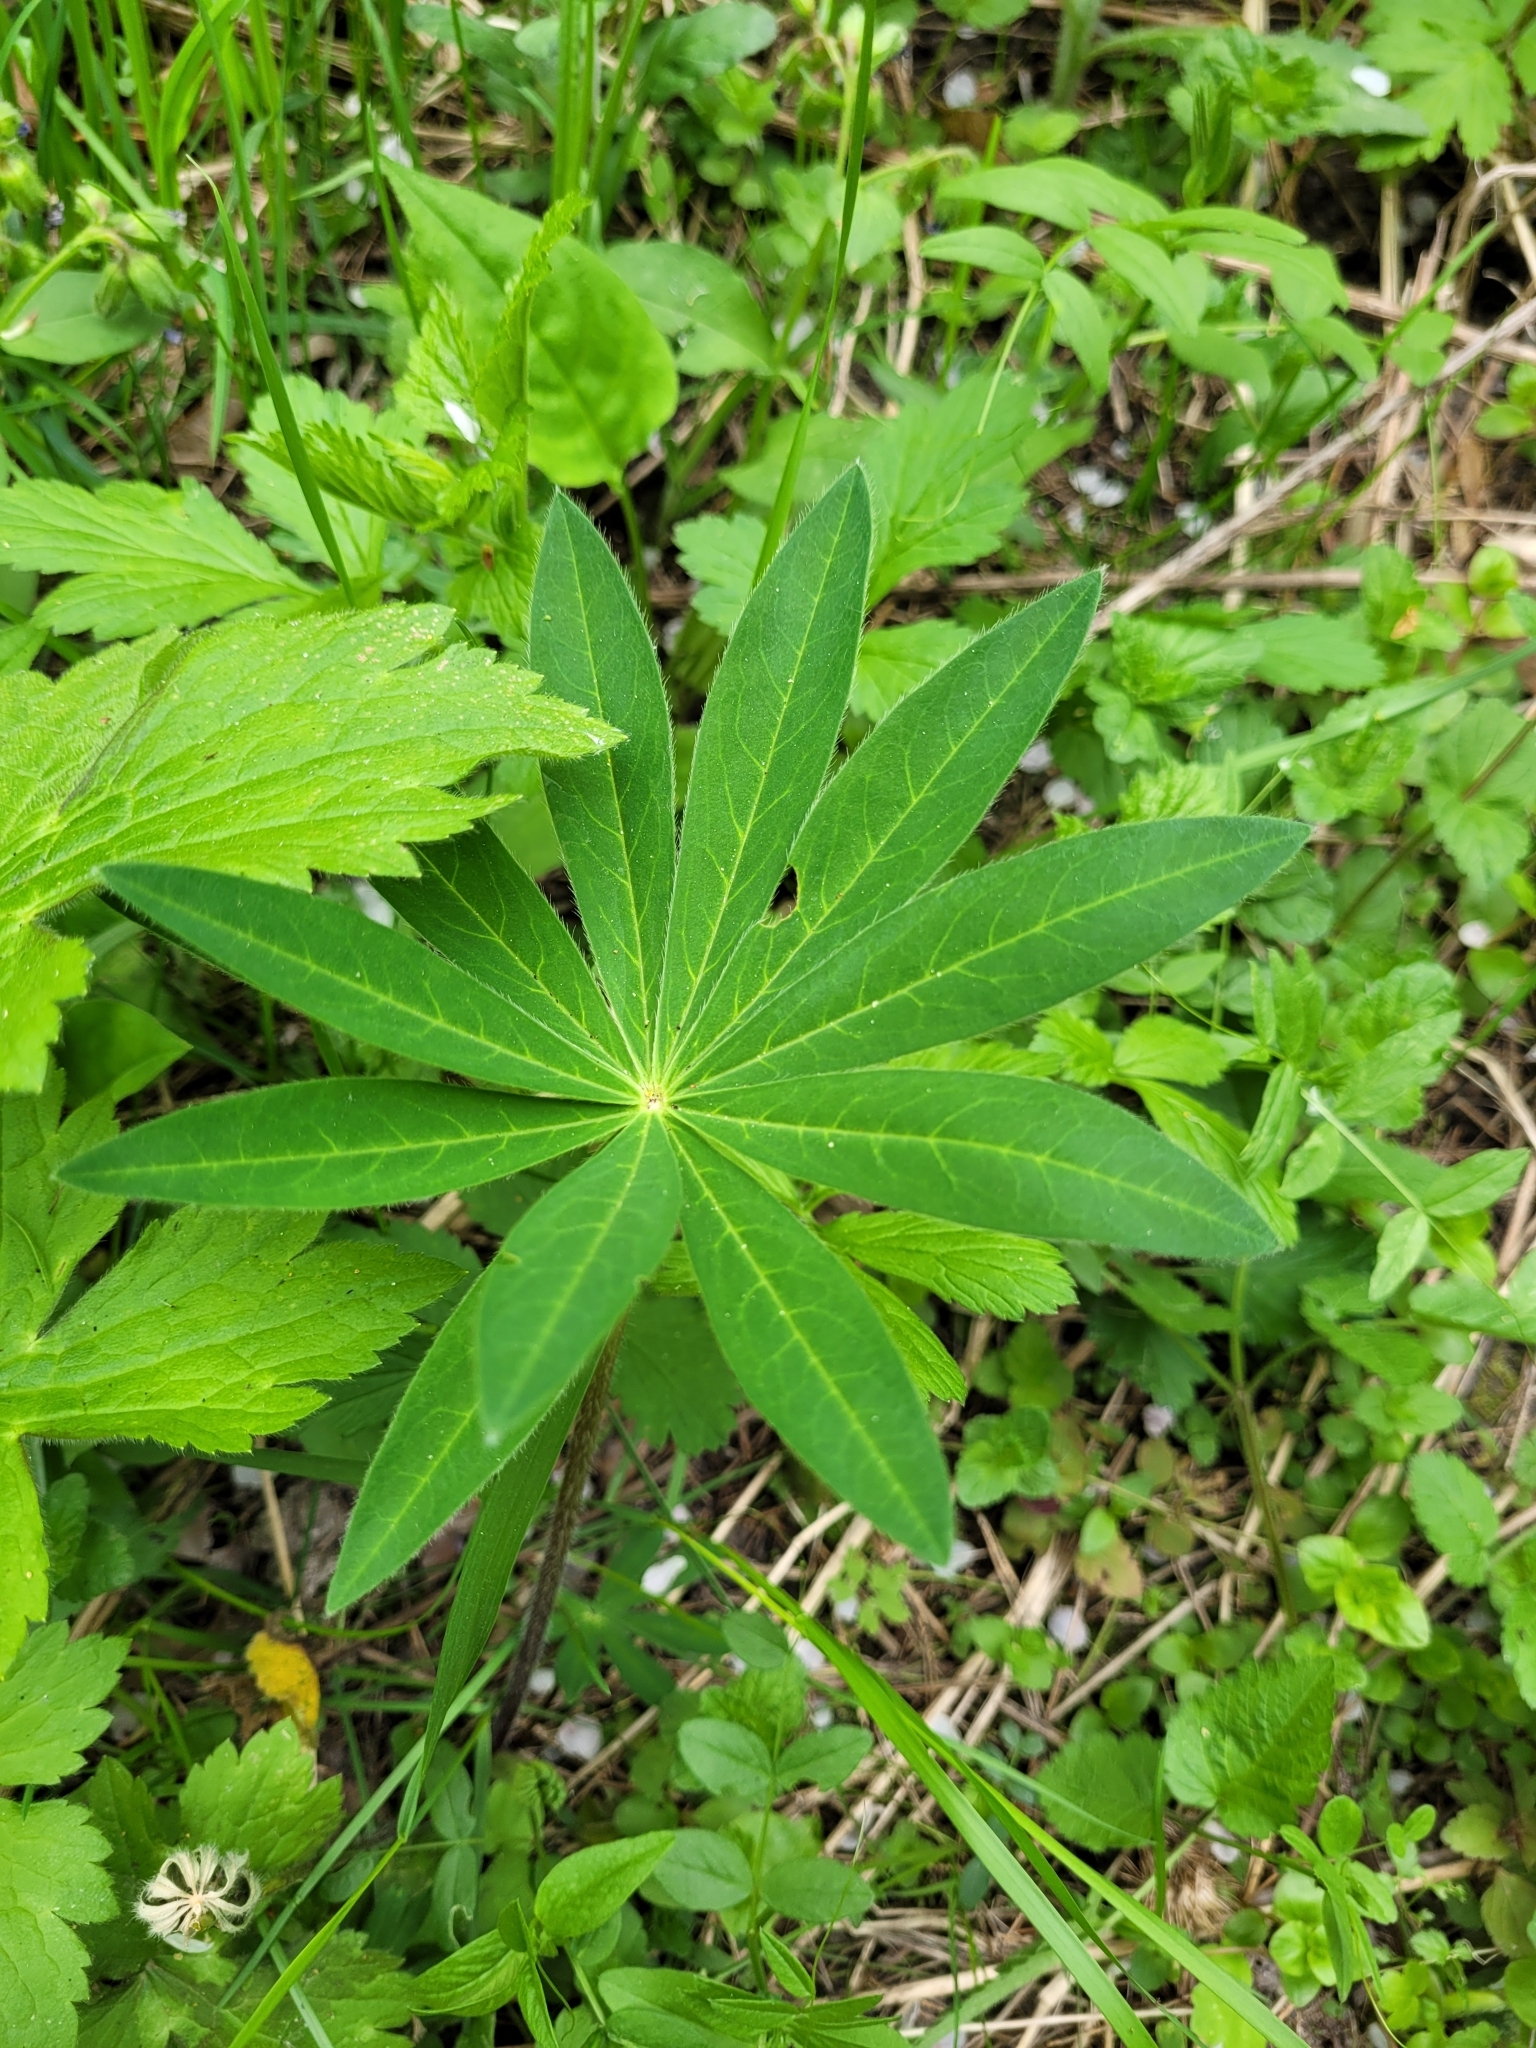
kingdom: Plantae
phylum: Tracheophyta
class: Magnoliopsida
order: Fabales
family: Fabaceae
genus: Lupinus
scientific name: Lupinus polyphyllus
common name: Garden lupin
